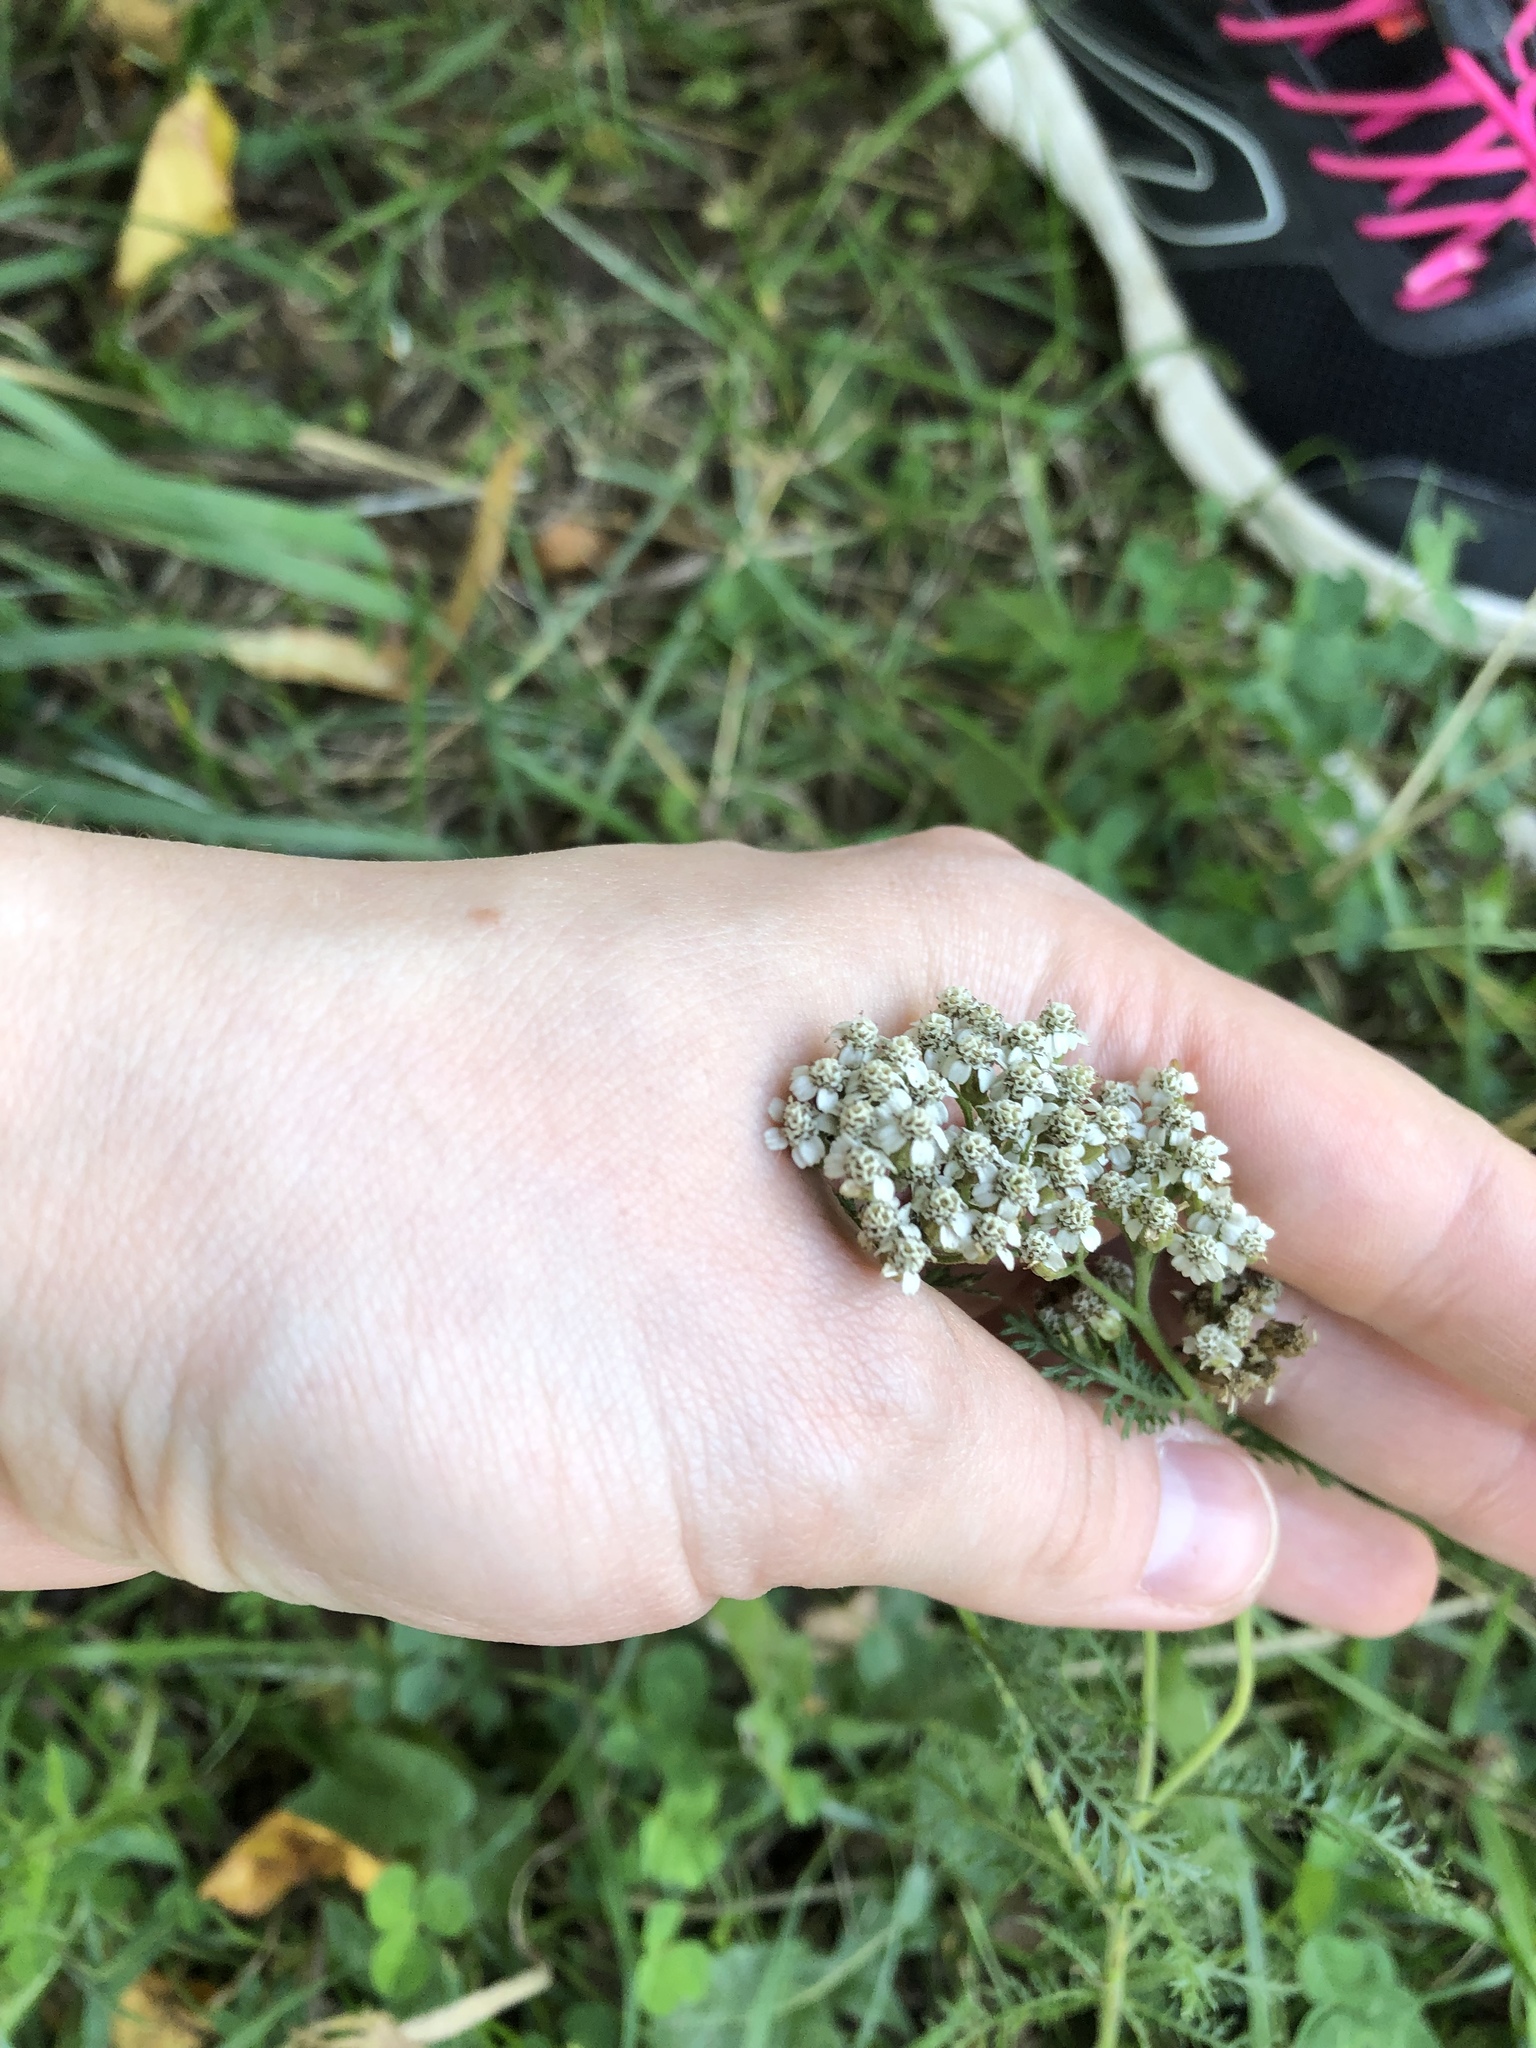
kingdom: Plantae
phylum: Tracheophyta
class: Magnoliopsida
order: Asterales
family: Asteraceae
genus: Achillea
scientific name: Achillea millefolium
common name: Yarrow
